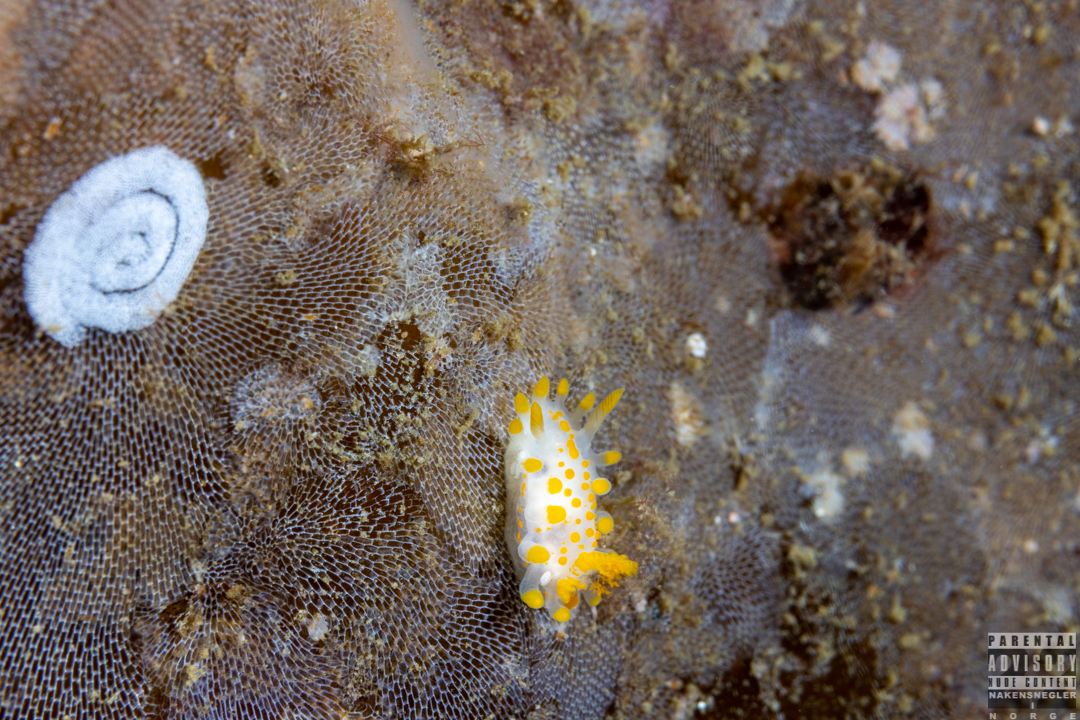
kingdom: Animalia
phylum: Mollusca
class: Gastropoda
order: Nudibranchia
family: Polyceridae
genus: Limacia
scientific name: Limacia clavigera
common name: Orange-clubbed sea slug
